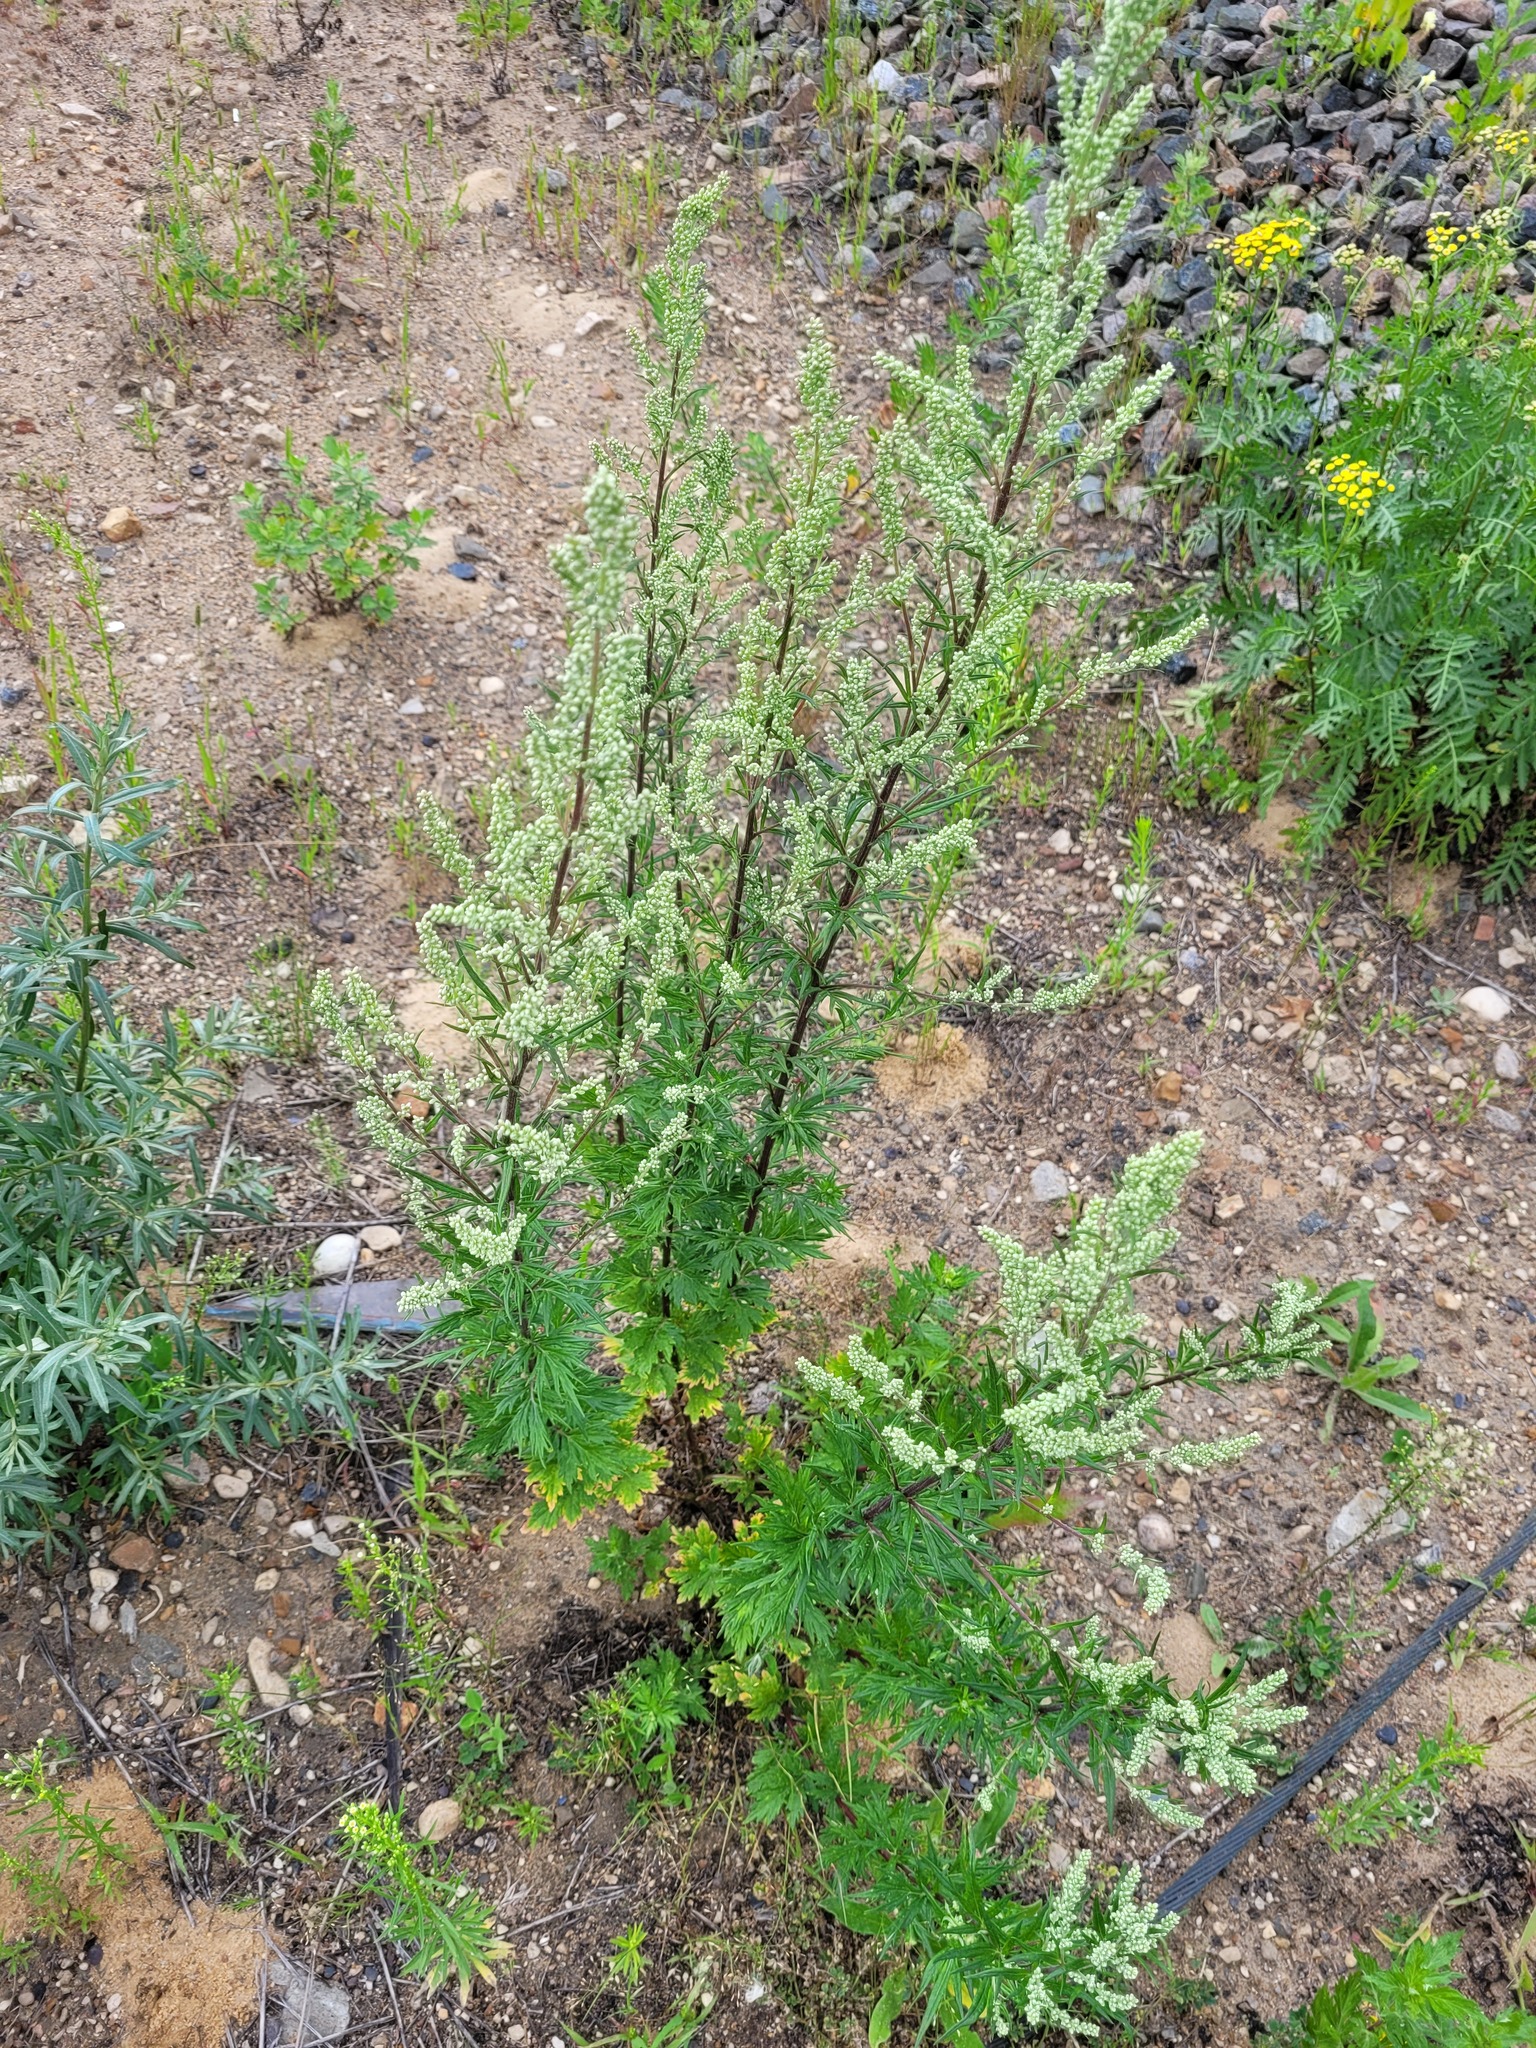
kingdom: Plantae
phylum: Tracheophyta
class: Magnoliopsida
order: Asterales
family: Asteraceae
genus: Artemisia
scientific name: Artemisia vulgaris
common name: Mugwort
